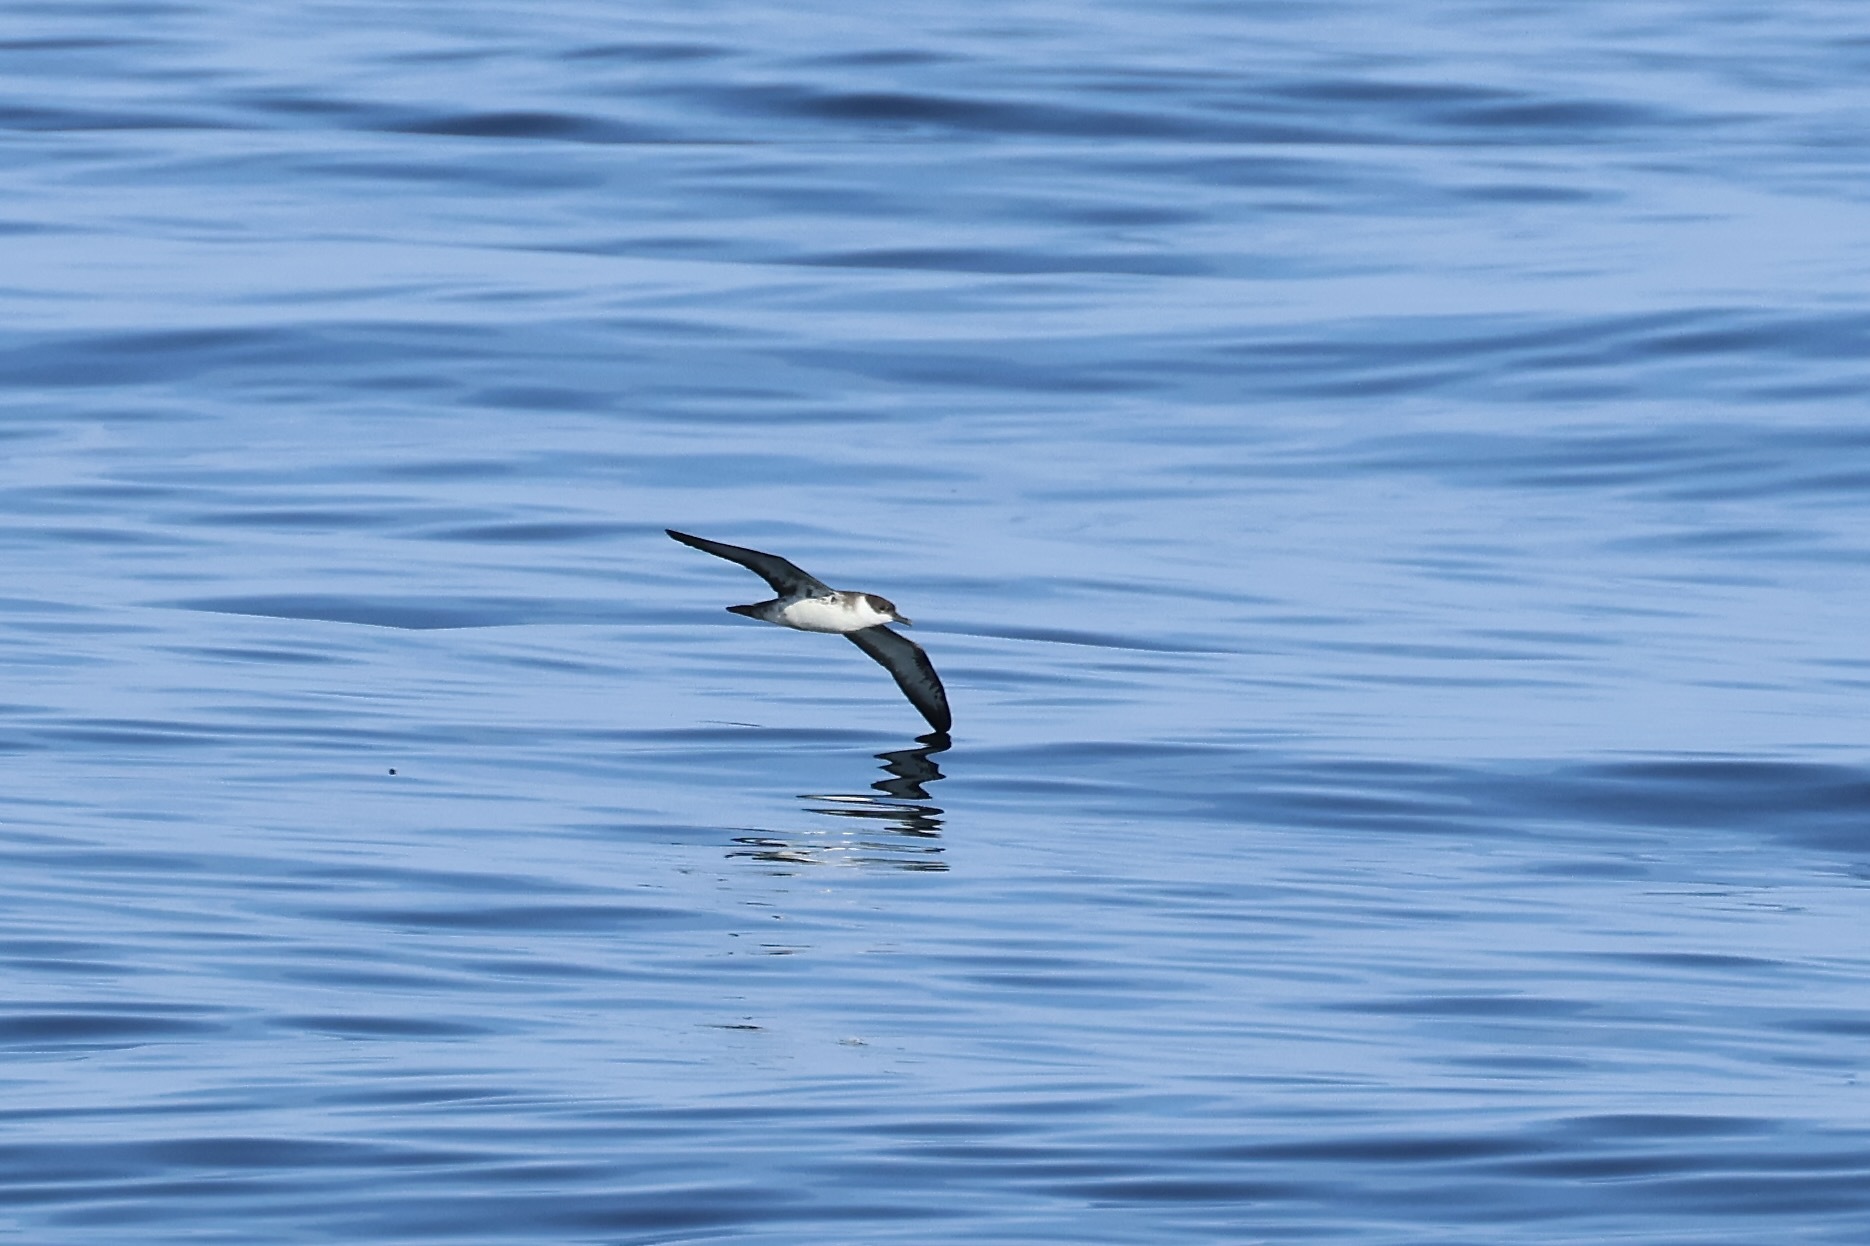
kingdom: Animalia
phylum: Chordata
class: Aves
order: Procellariiformes
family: Procellariidae
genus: Puffinus
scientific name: Puffinus gravis
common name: Great shearwater
